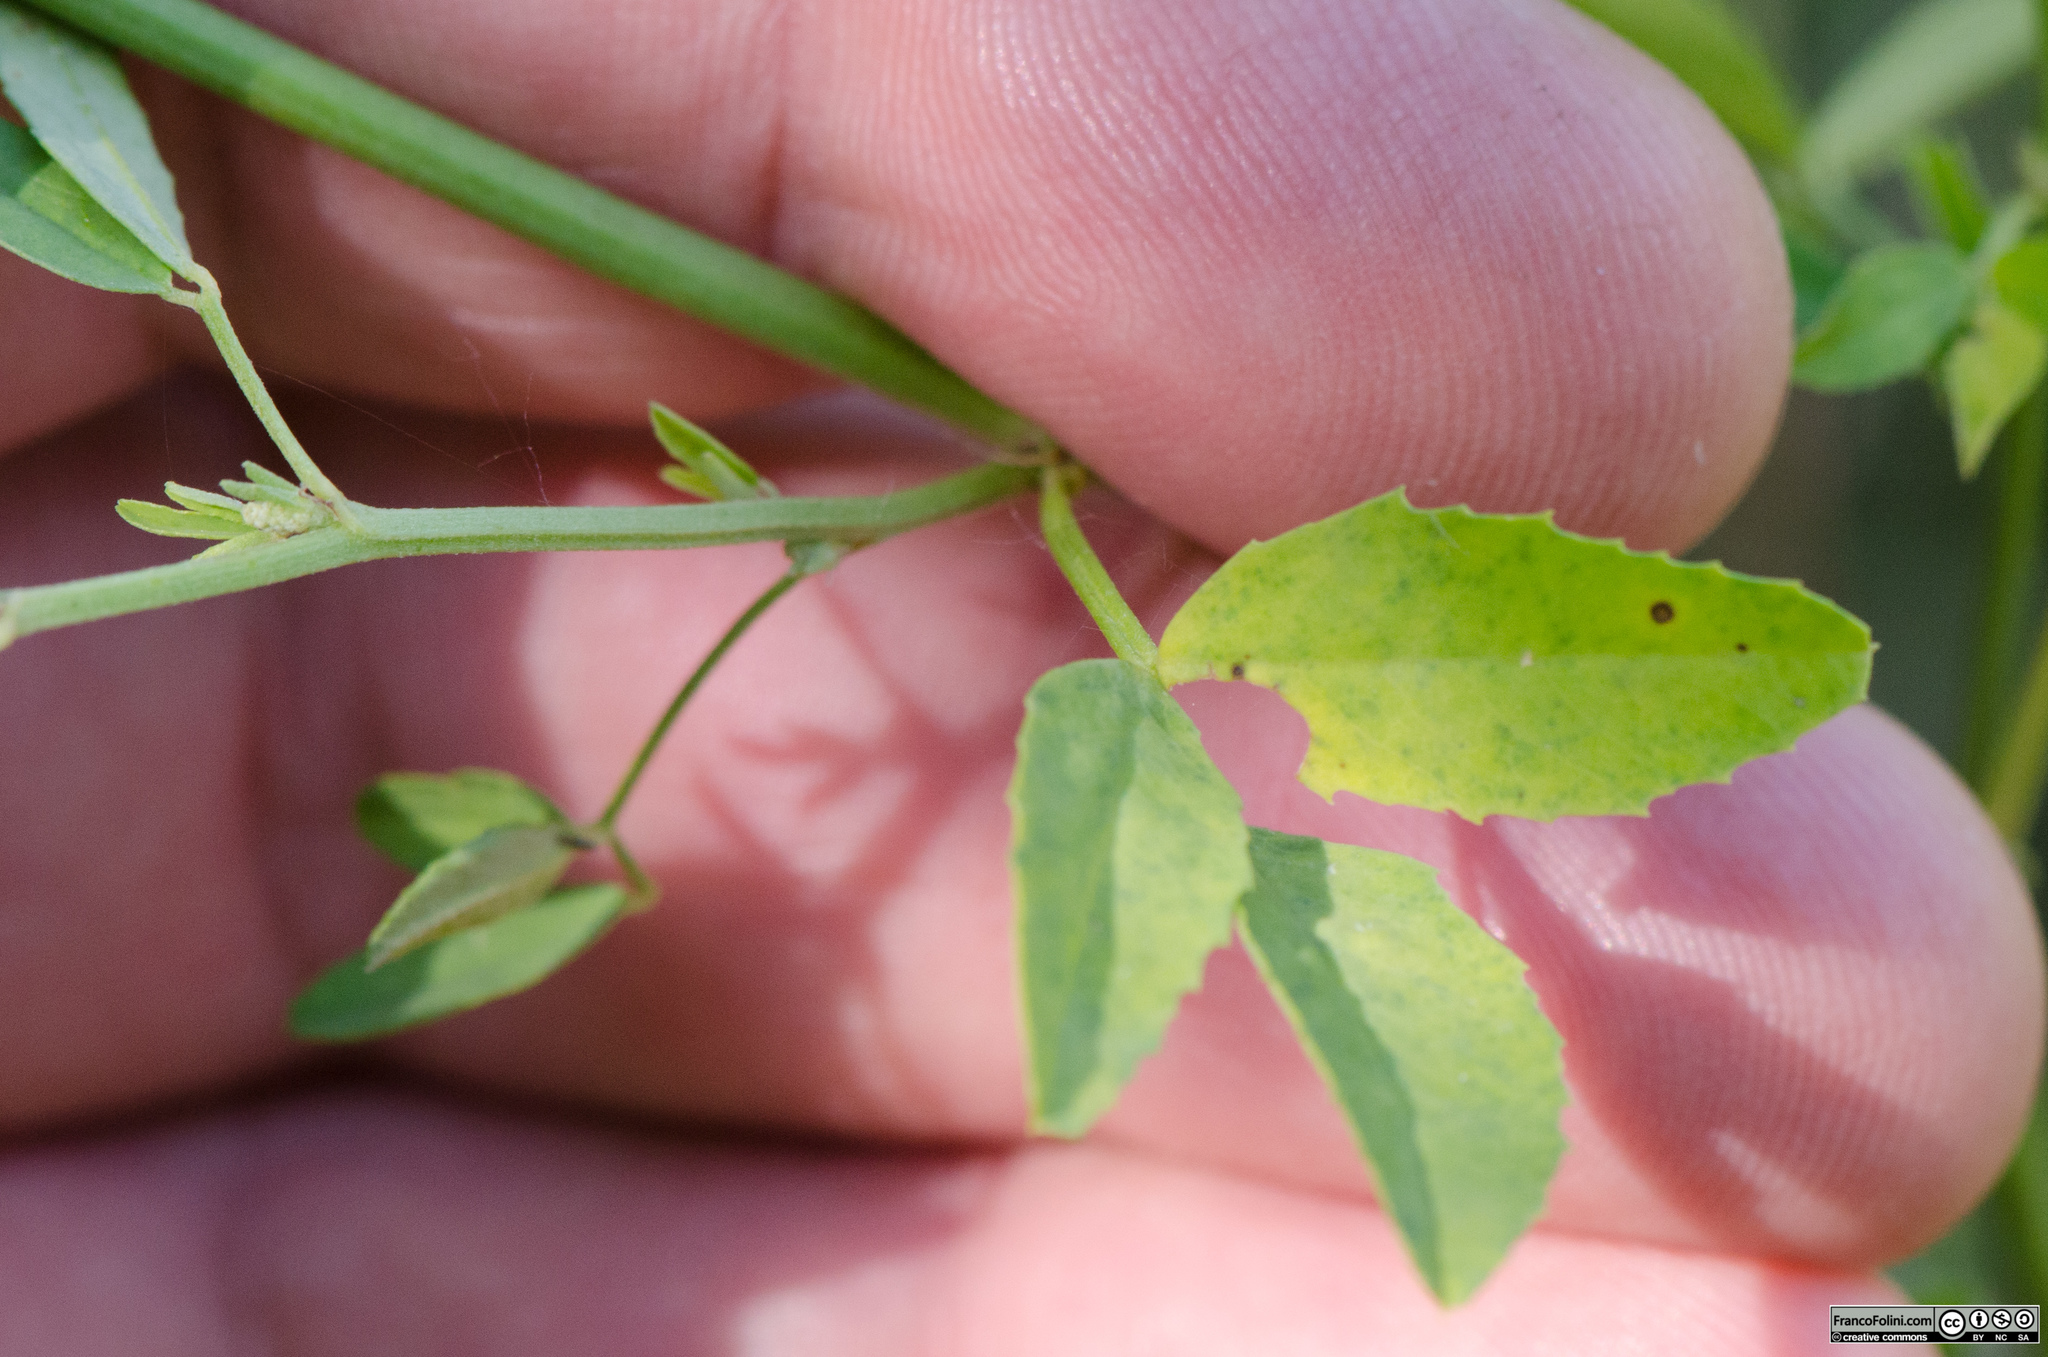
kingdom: Plantae
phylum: Tracheophyta
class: Magnoliopsida
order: Fabales
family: Fabaceae
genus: Melilotus
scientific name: Melilotus albus
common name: White melilot
